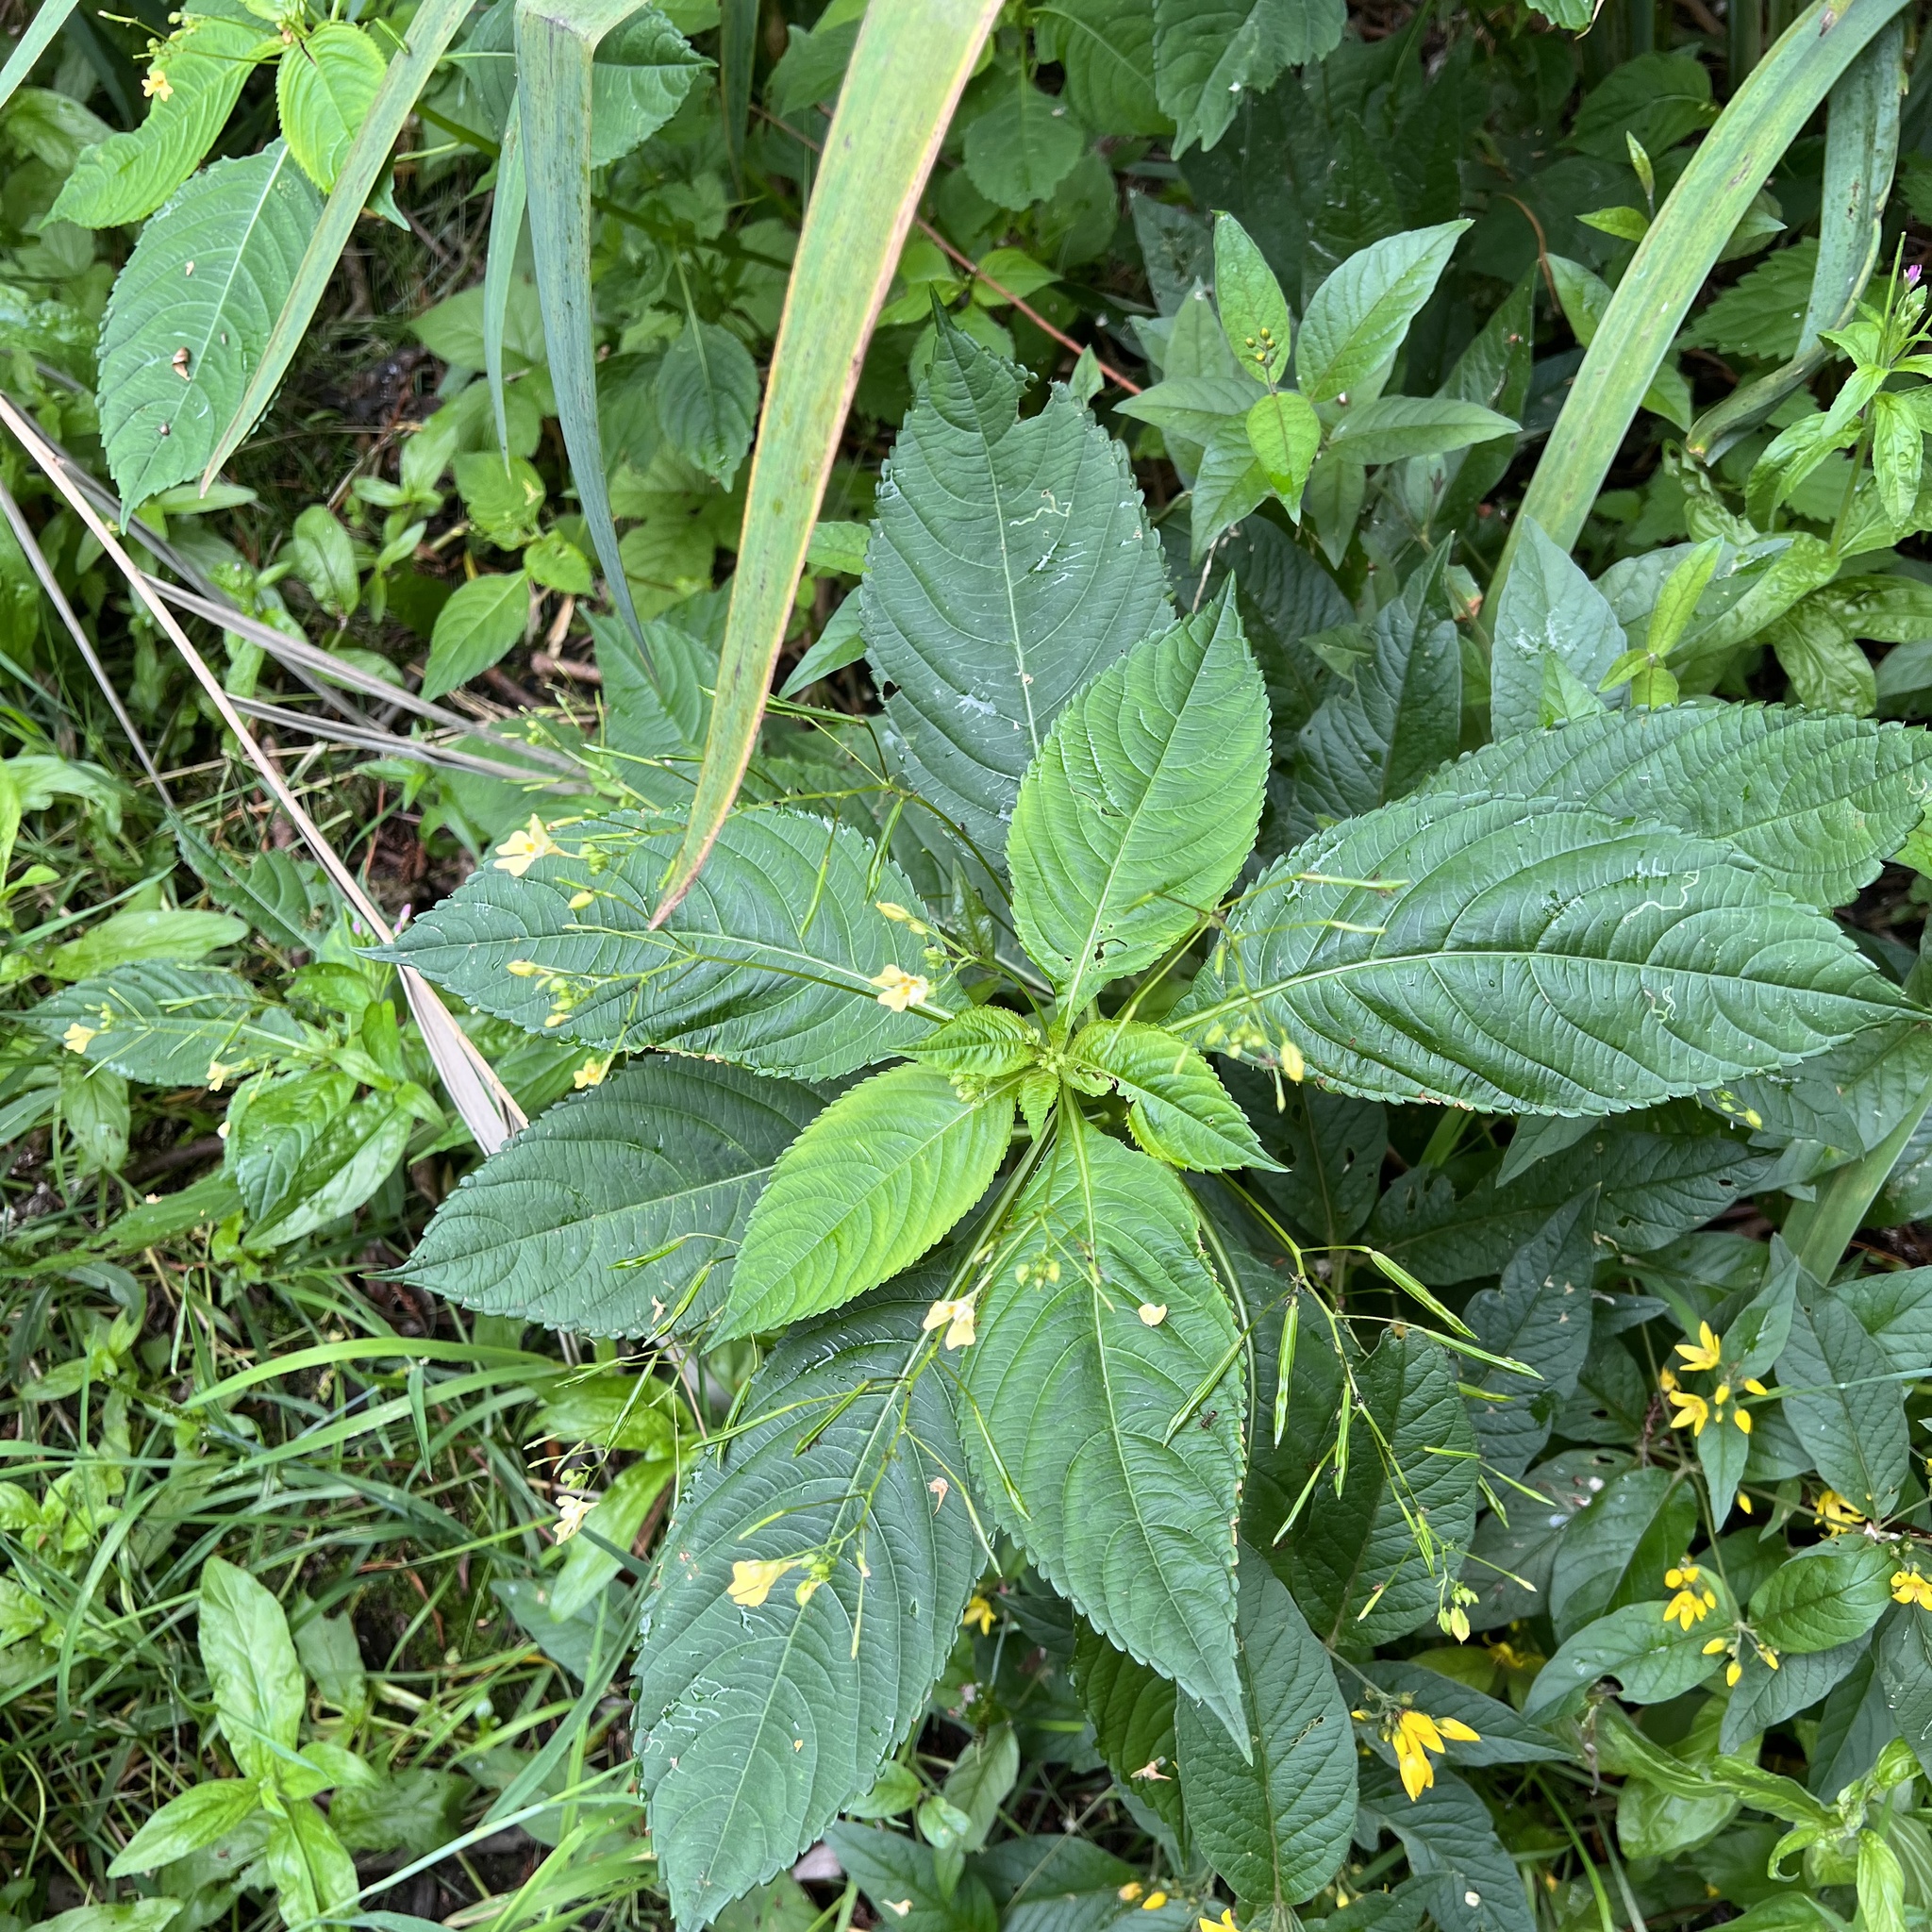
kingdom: Plantae
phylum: Tracheophyta
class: Magnoliopsida
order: Ericales
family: Balsaminaceae
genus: Impatiens
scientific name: Impatiens parviflora
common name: Small balsam
